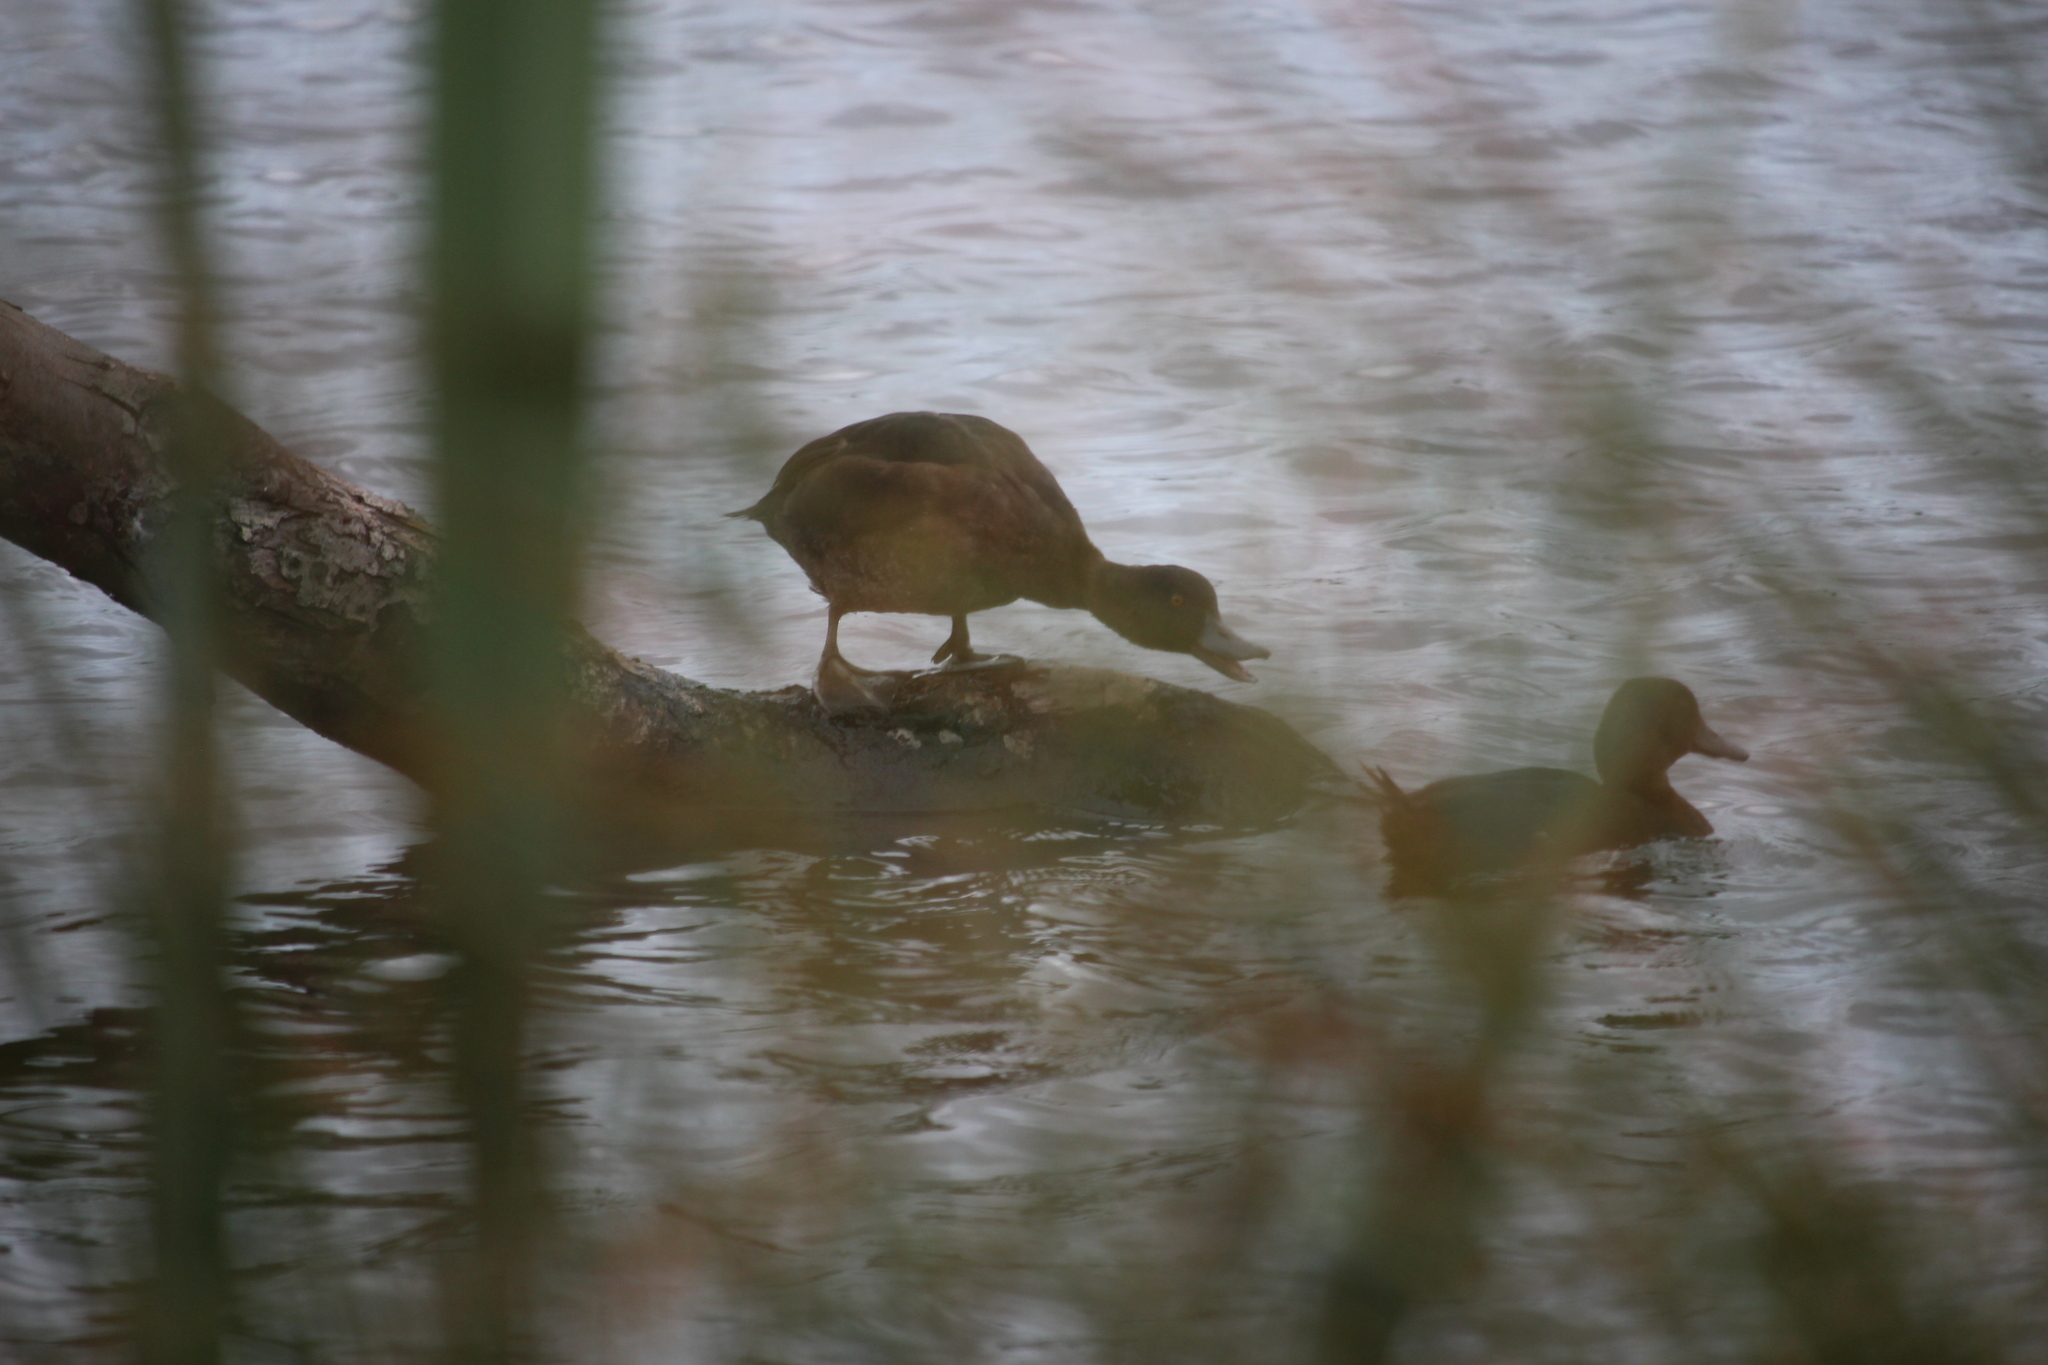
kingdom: Animalia
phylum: Chordata
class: Aves
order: Anseriformes
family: Anatidae
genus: Aythya
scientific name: Aythya novaeseelandiae
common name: New zealand scaup
